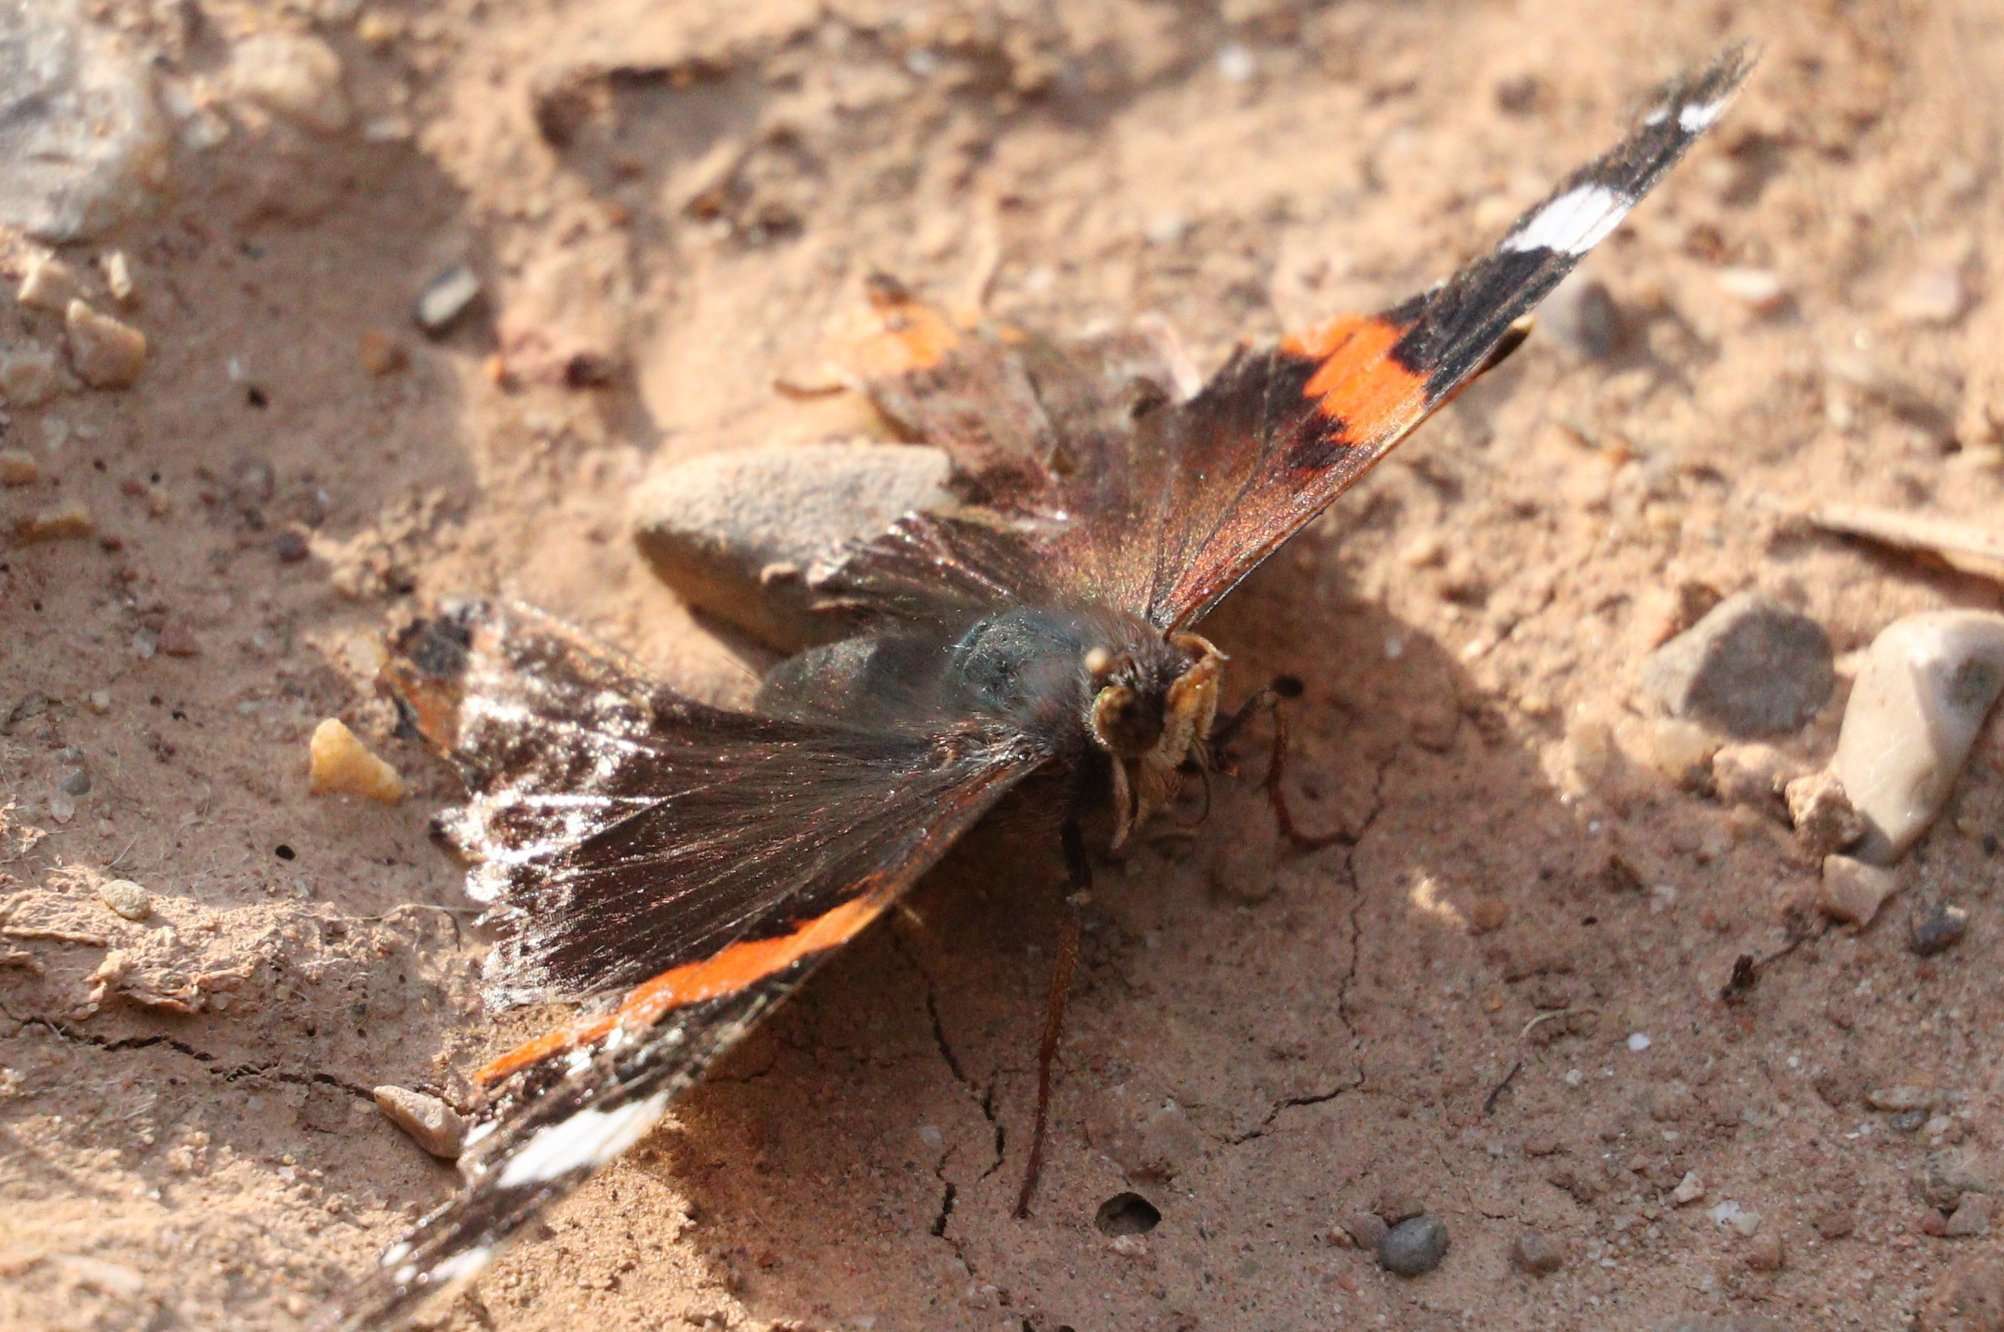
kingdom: Animalia
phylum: Arthropoda
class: Insecta
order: Lepidoptera
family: Nymphalidae
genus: Vanessa
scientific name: Vanessa atalanta
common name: Red admiral
